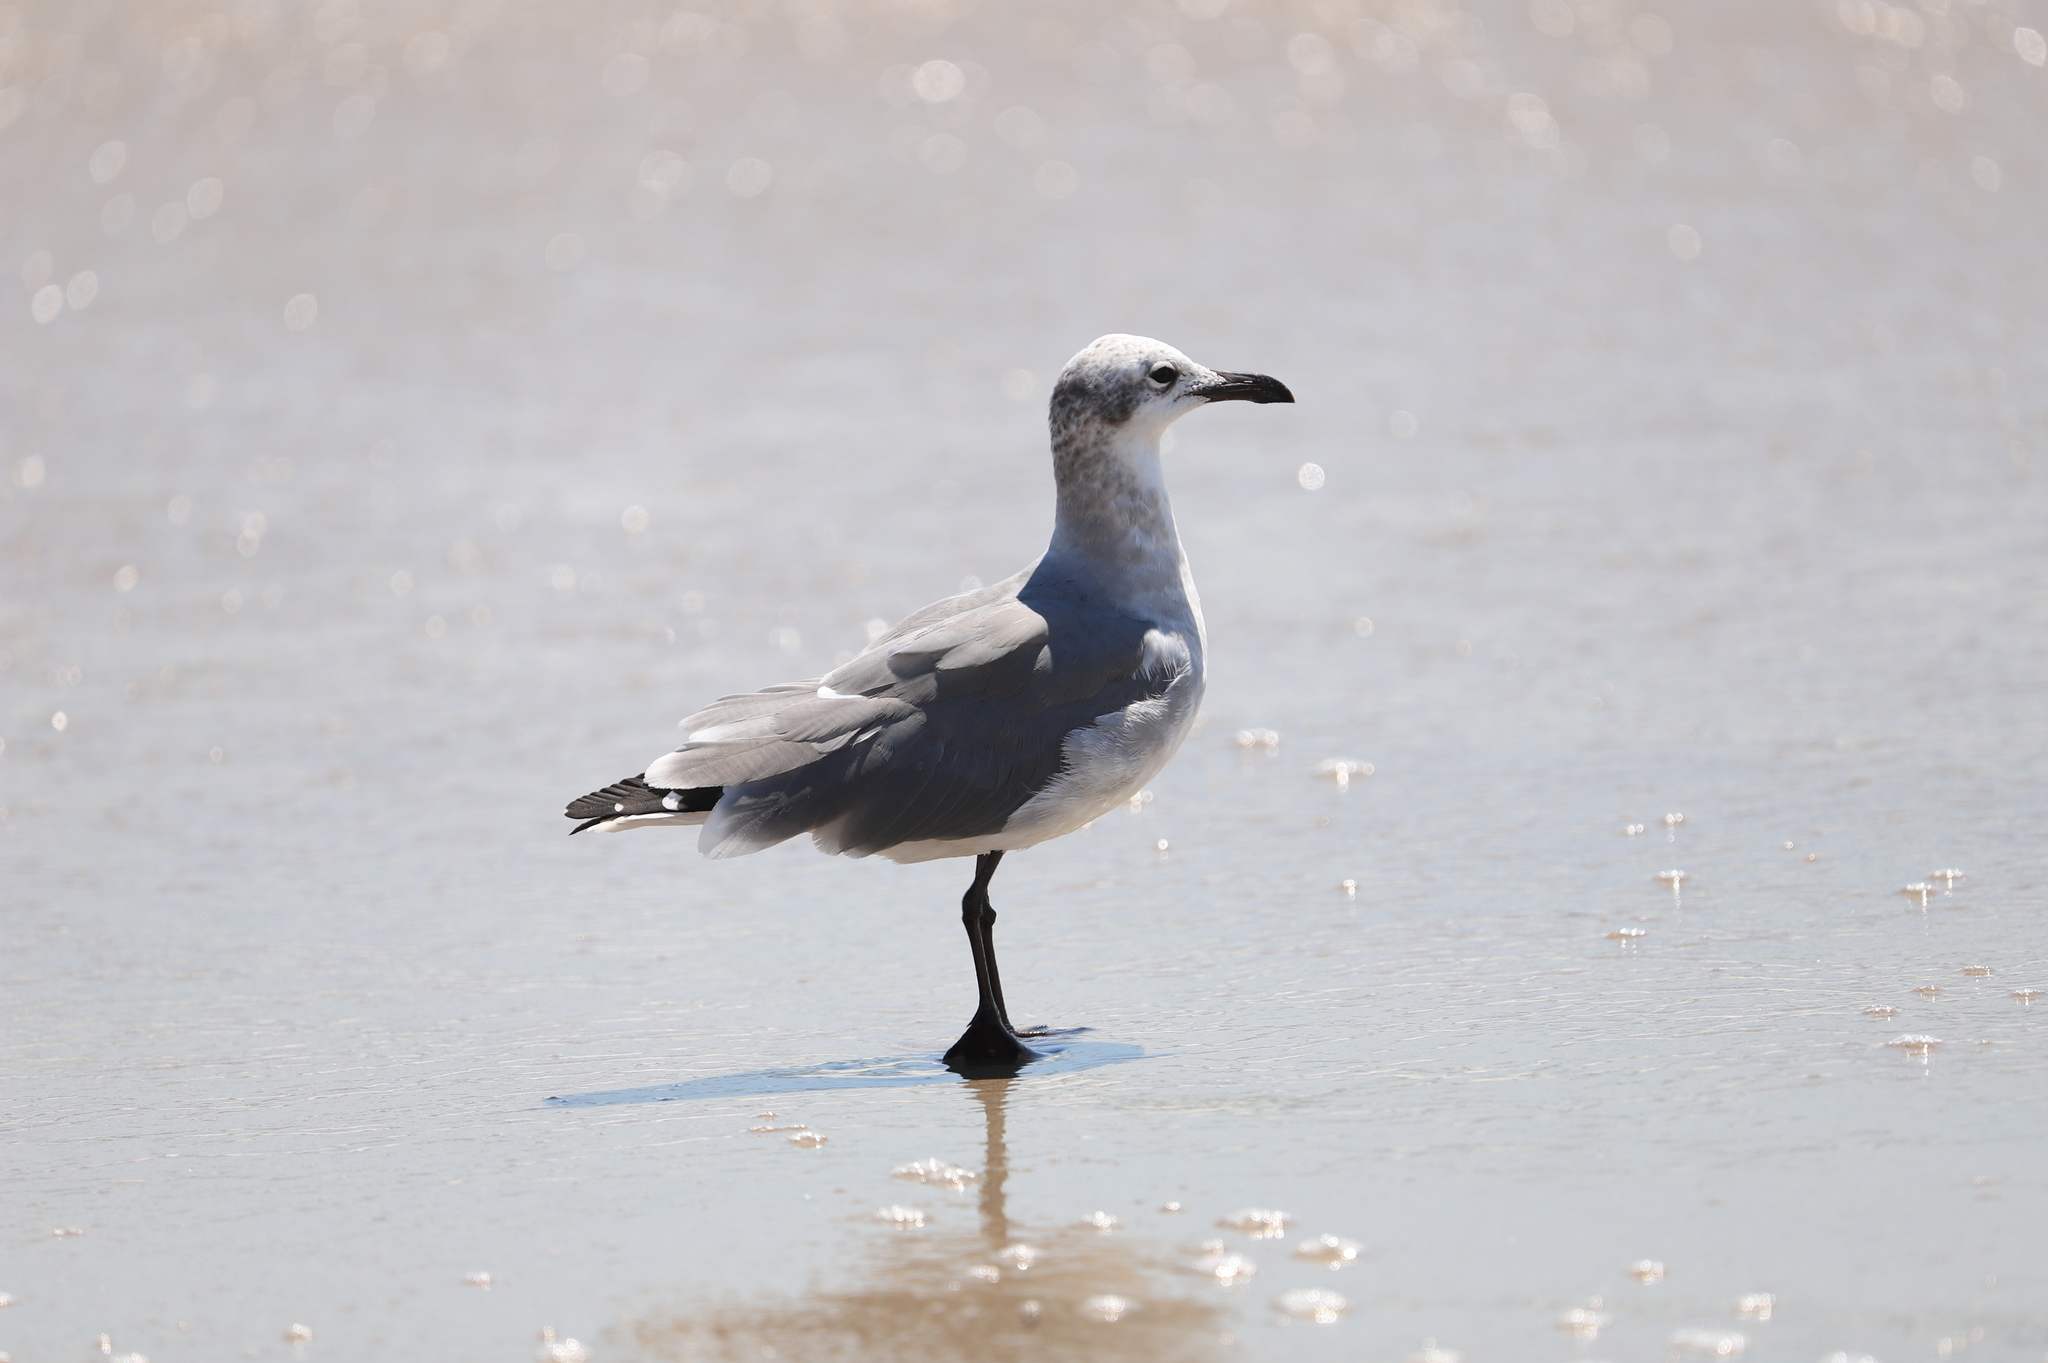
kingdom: Animalia
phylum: Chordata
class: Aves
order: Charadriiformes
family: Laridae
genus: Leucophaeus
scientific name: Leucophaeus atricilla
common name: Laughing gull
